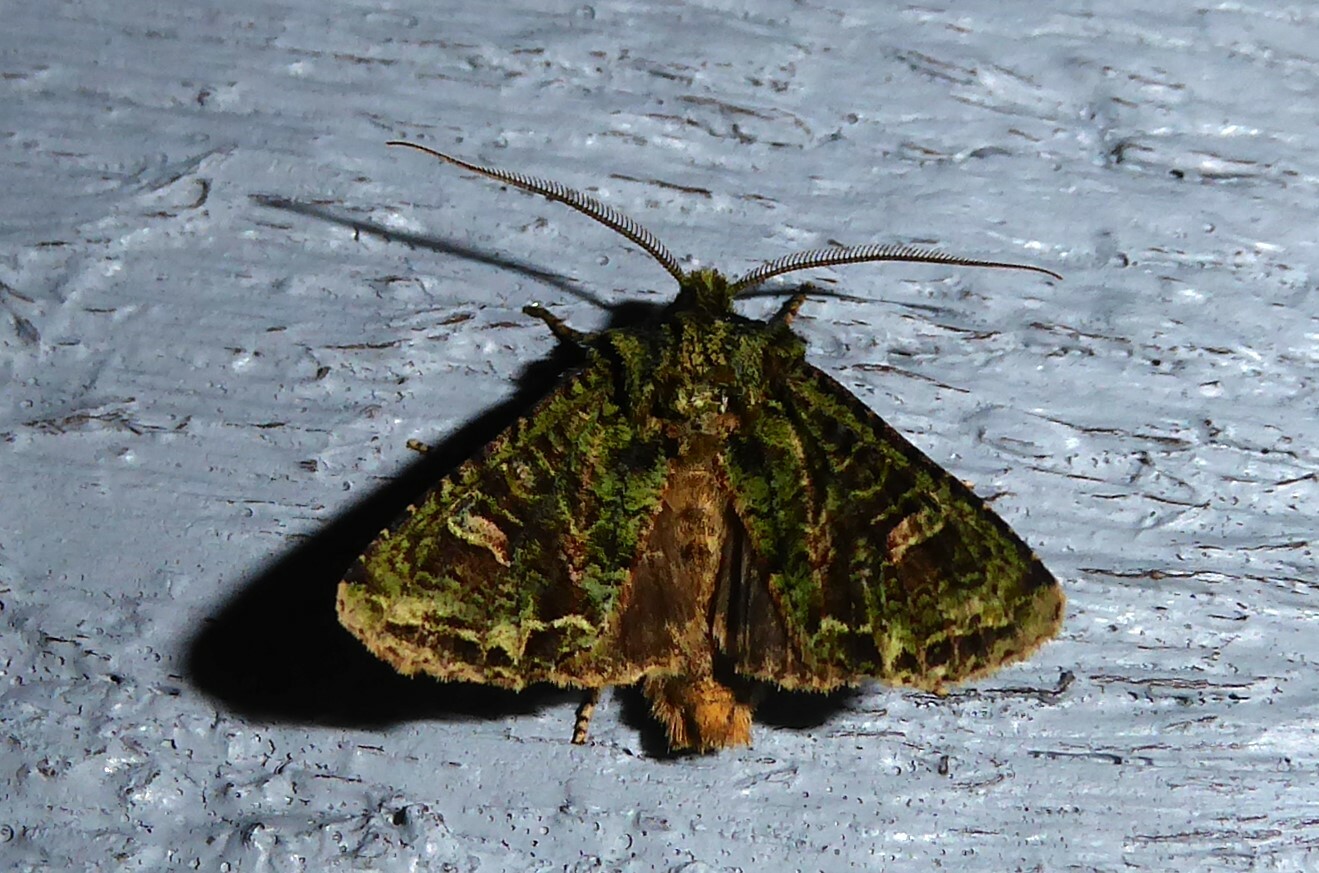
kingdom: Animalia
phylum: Arthropoda
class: Insecta
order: Lepidoptera
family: Noctuidae
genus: Ichneutica
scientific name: Ichneutica
